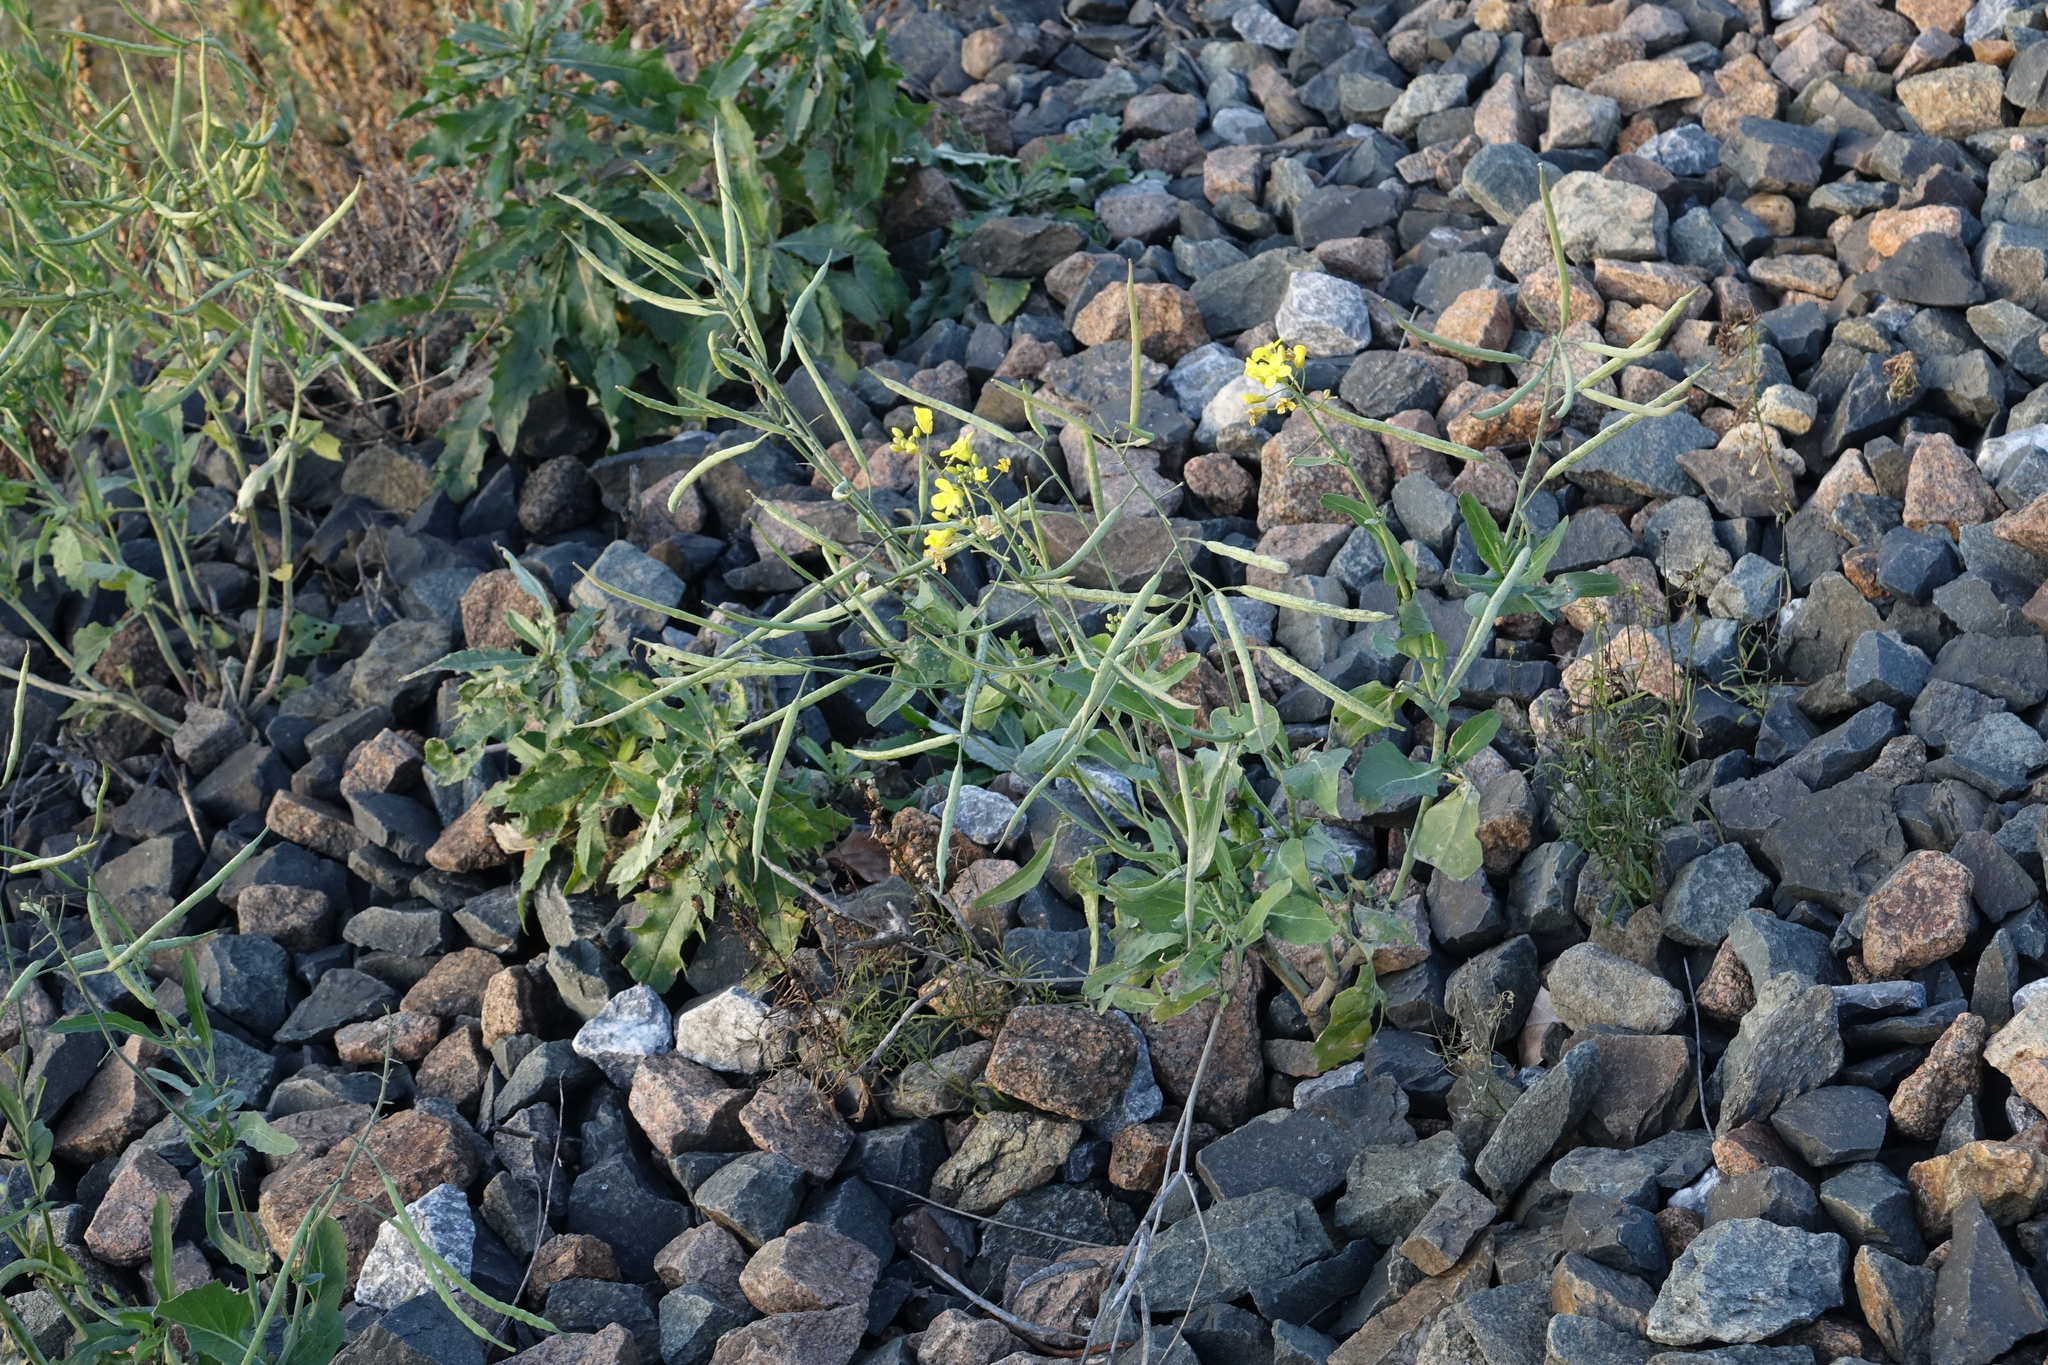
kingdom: Plantae
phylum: Tracheophyta
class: Magnoliopsida
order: Brassicales
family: Brassicaceae
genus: Brassica
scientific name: Brassica napus
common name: Rape
